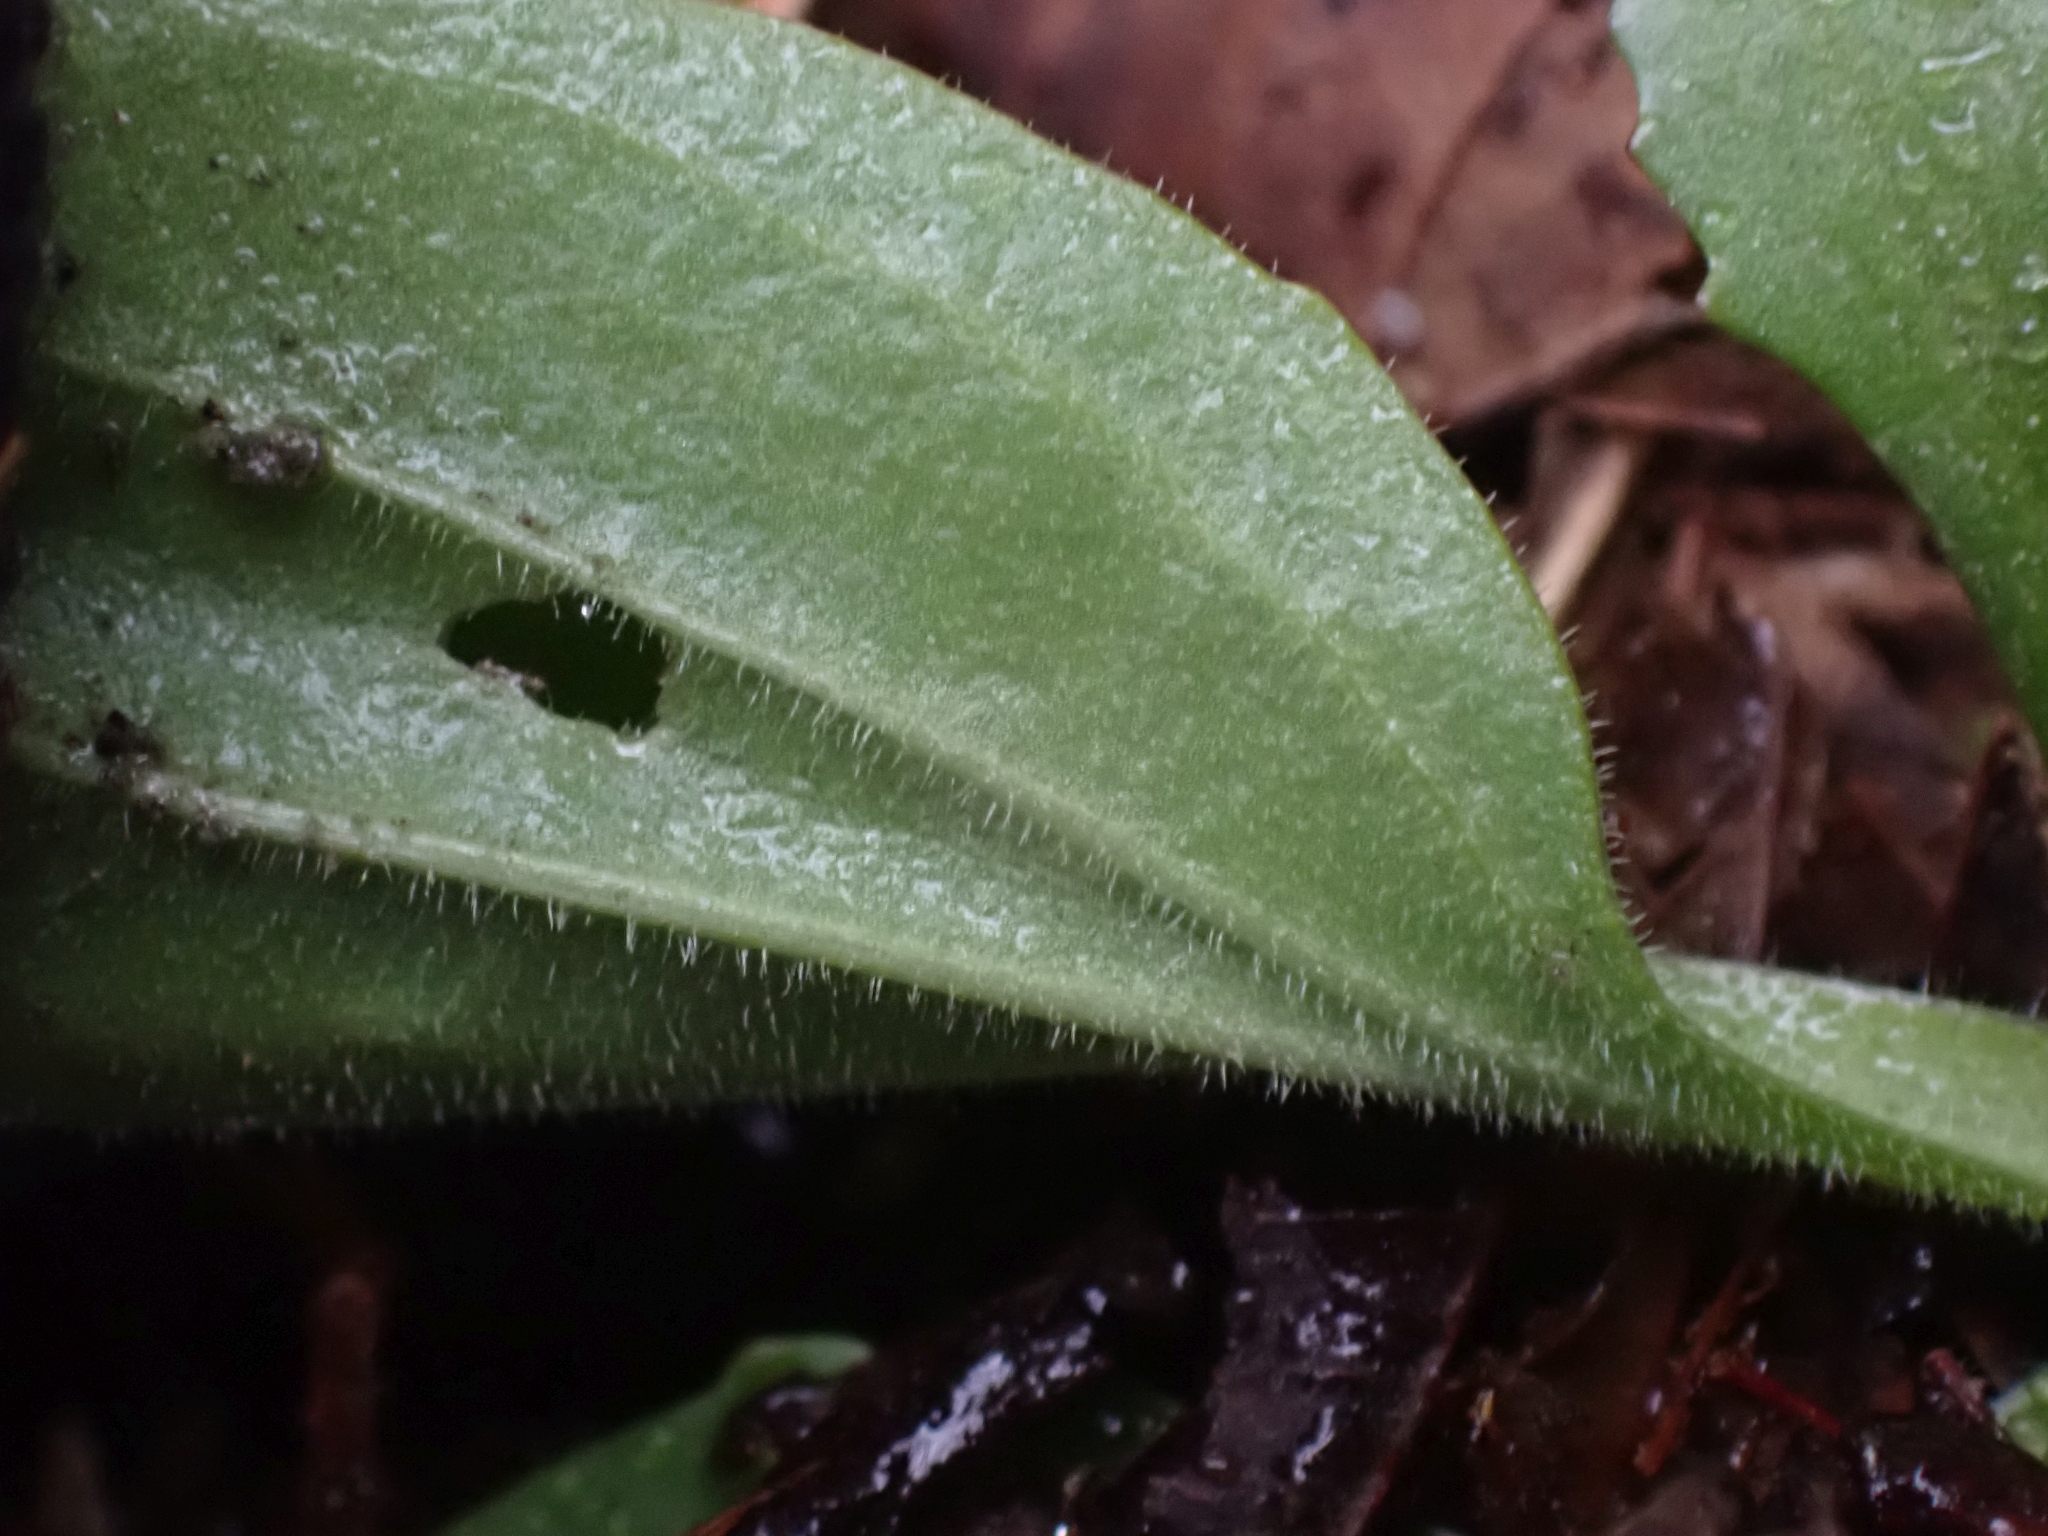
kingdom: Plantae
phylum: Tracheophyta
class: Magnoliopsida
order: Lamiales
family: Plantaginaceae
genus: Plantago
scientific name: Plantago major
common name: Common plantain
